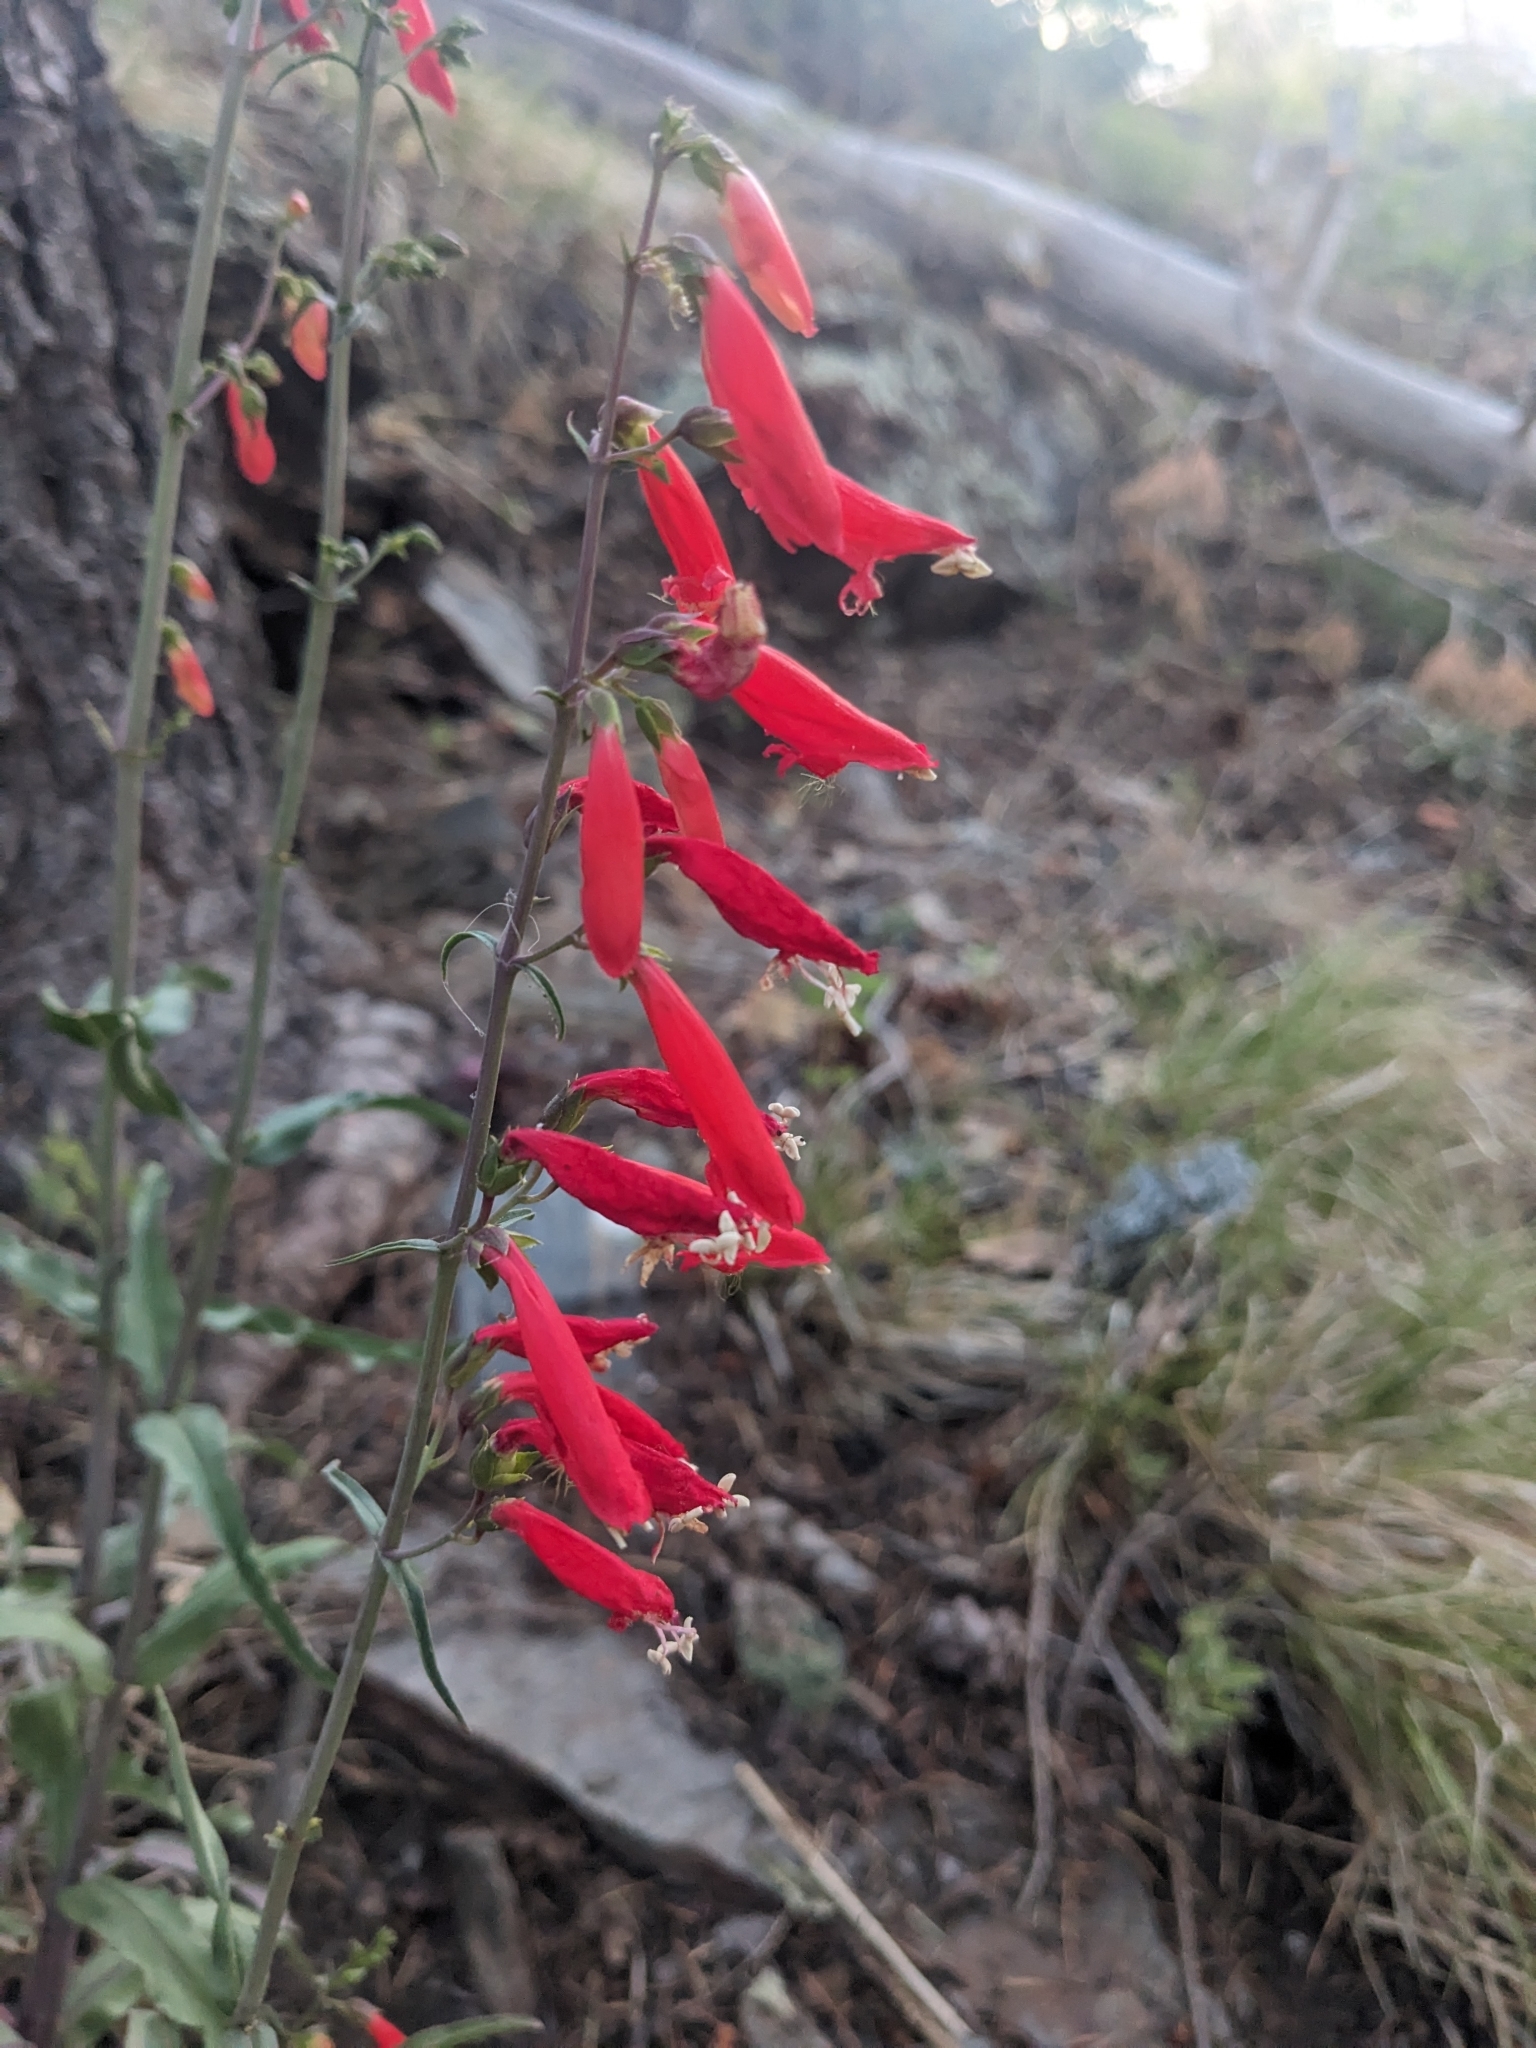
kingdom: Plantae
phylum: Tracheophyta
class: Magnoliopsida
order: Lamiales
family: Plantaginaceae
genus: Penstemon
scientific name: Penstemon barbatus
